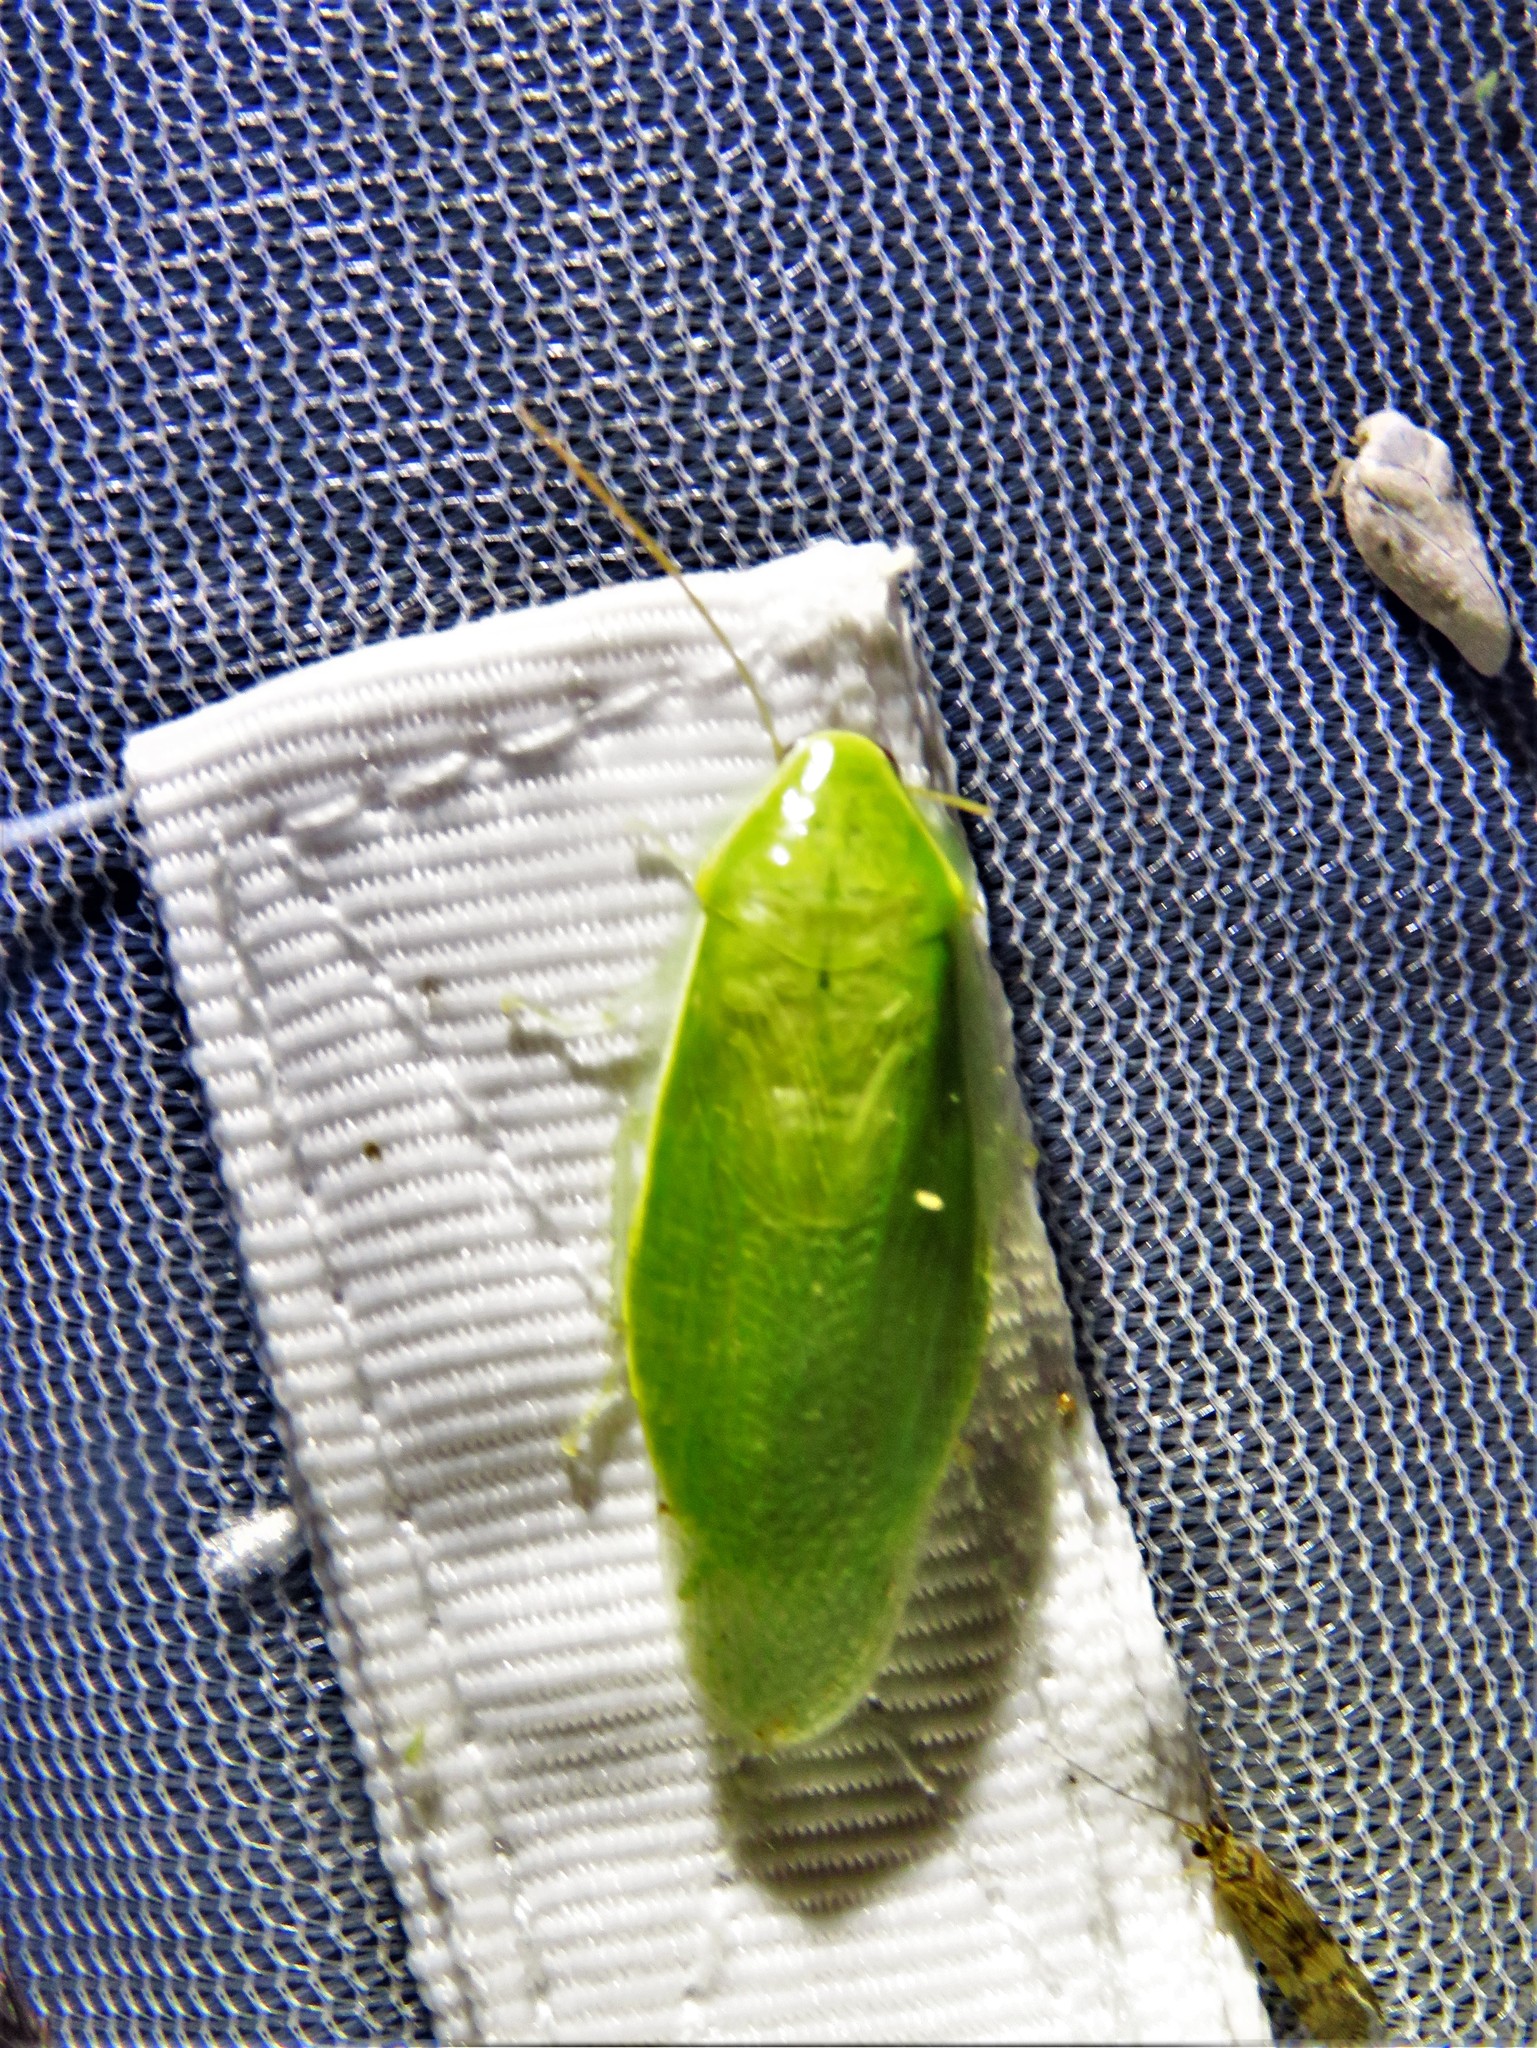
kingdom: Animalia
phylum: Arthropoda
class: Insecta
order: Blattodea
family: Blaberidae
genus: Panchlora
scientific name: Panchlora nivea
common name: Cuban cockroach
